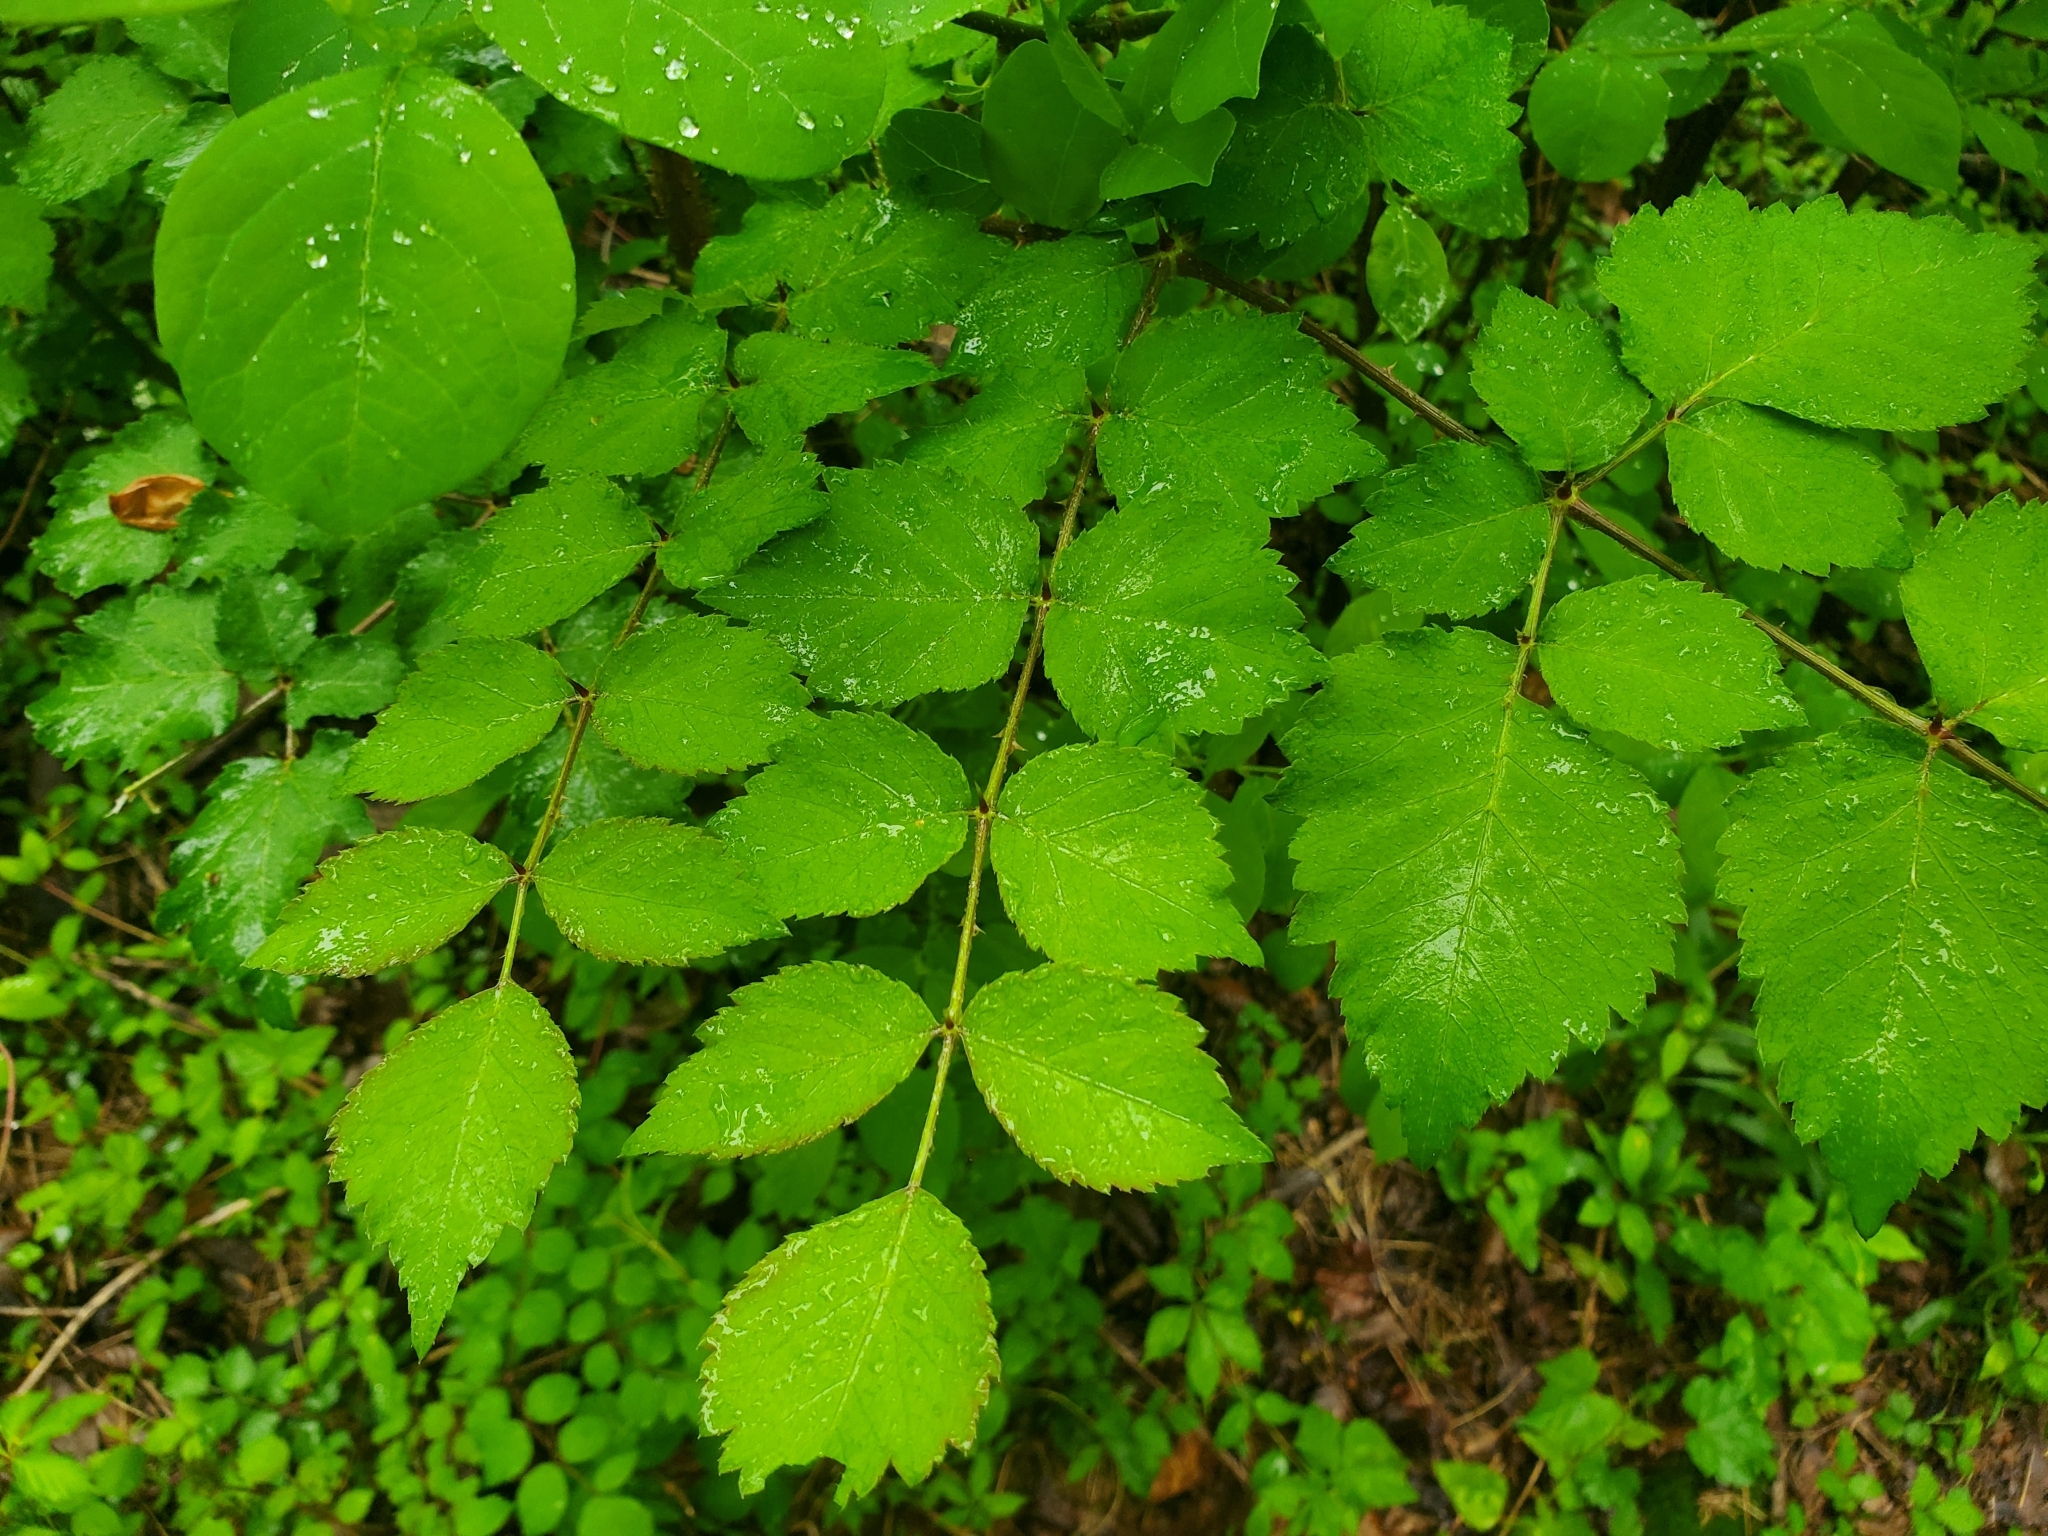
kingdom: Plantae
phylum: Tracheophyta
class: Magnoliopsida
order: Apiales
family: Araliaceae
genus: Aralia
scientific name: Aralia elata
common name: Japanese angelica-tree
